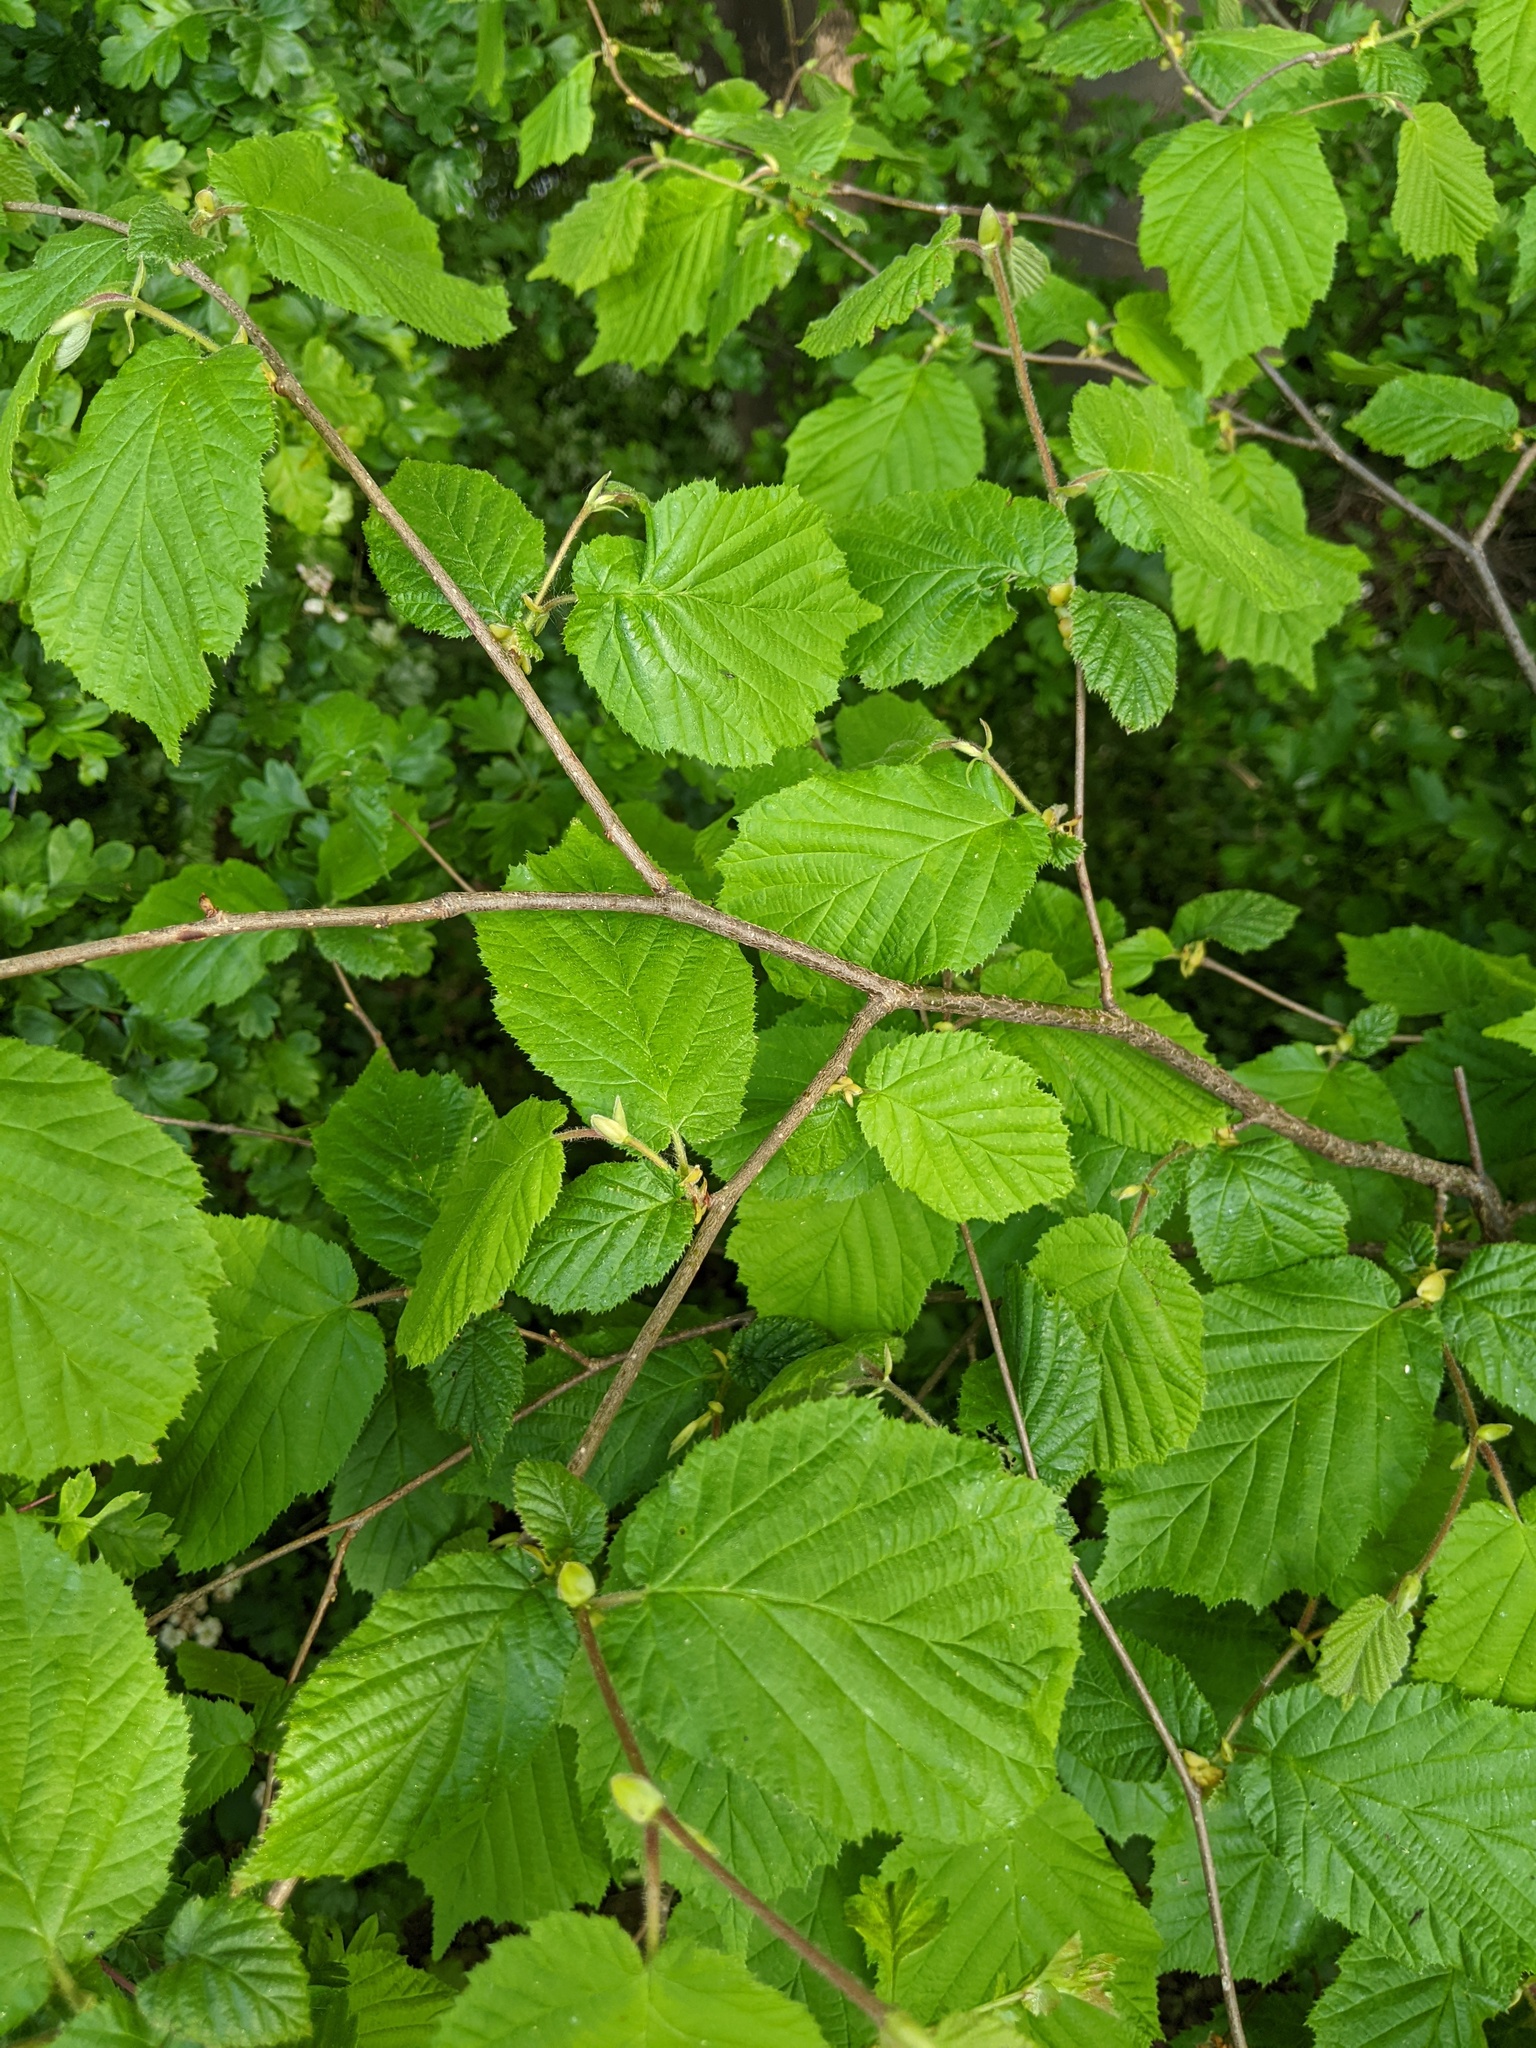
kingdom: Plantae
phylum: Tracheophyta
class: Magnoliopsida
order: Fagales
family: Betulaceae
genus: Corylus
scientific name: Corylus avellana
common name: European hazel
